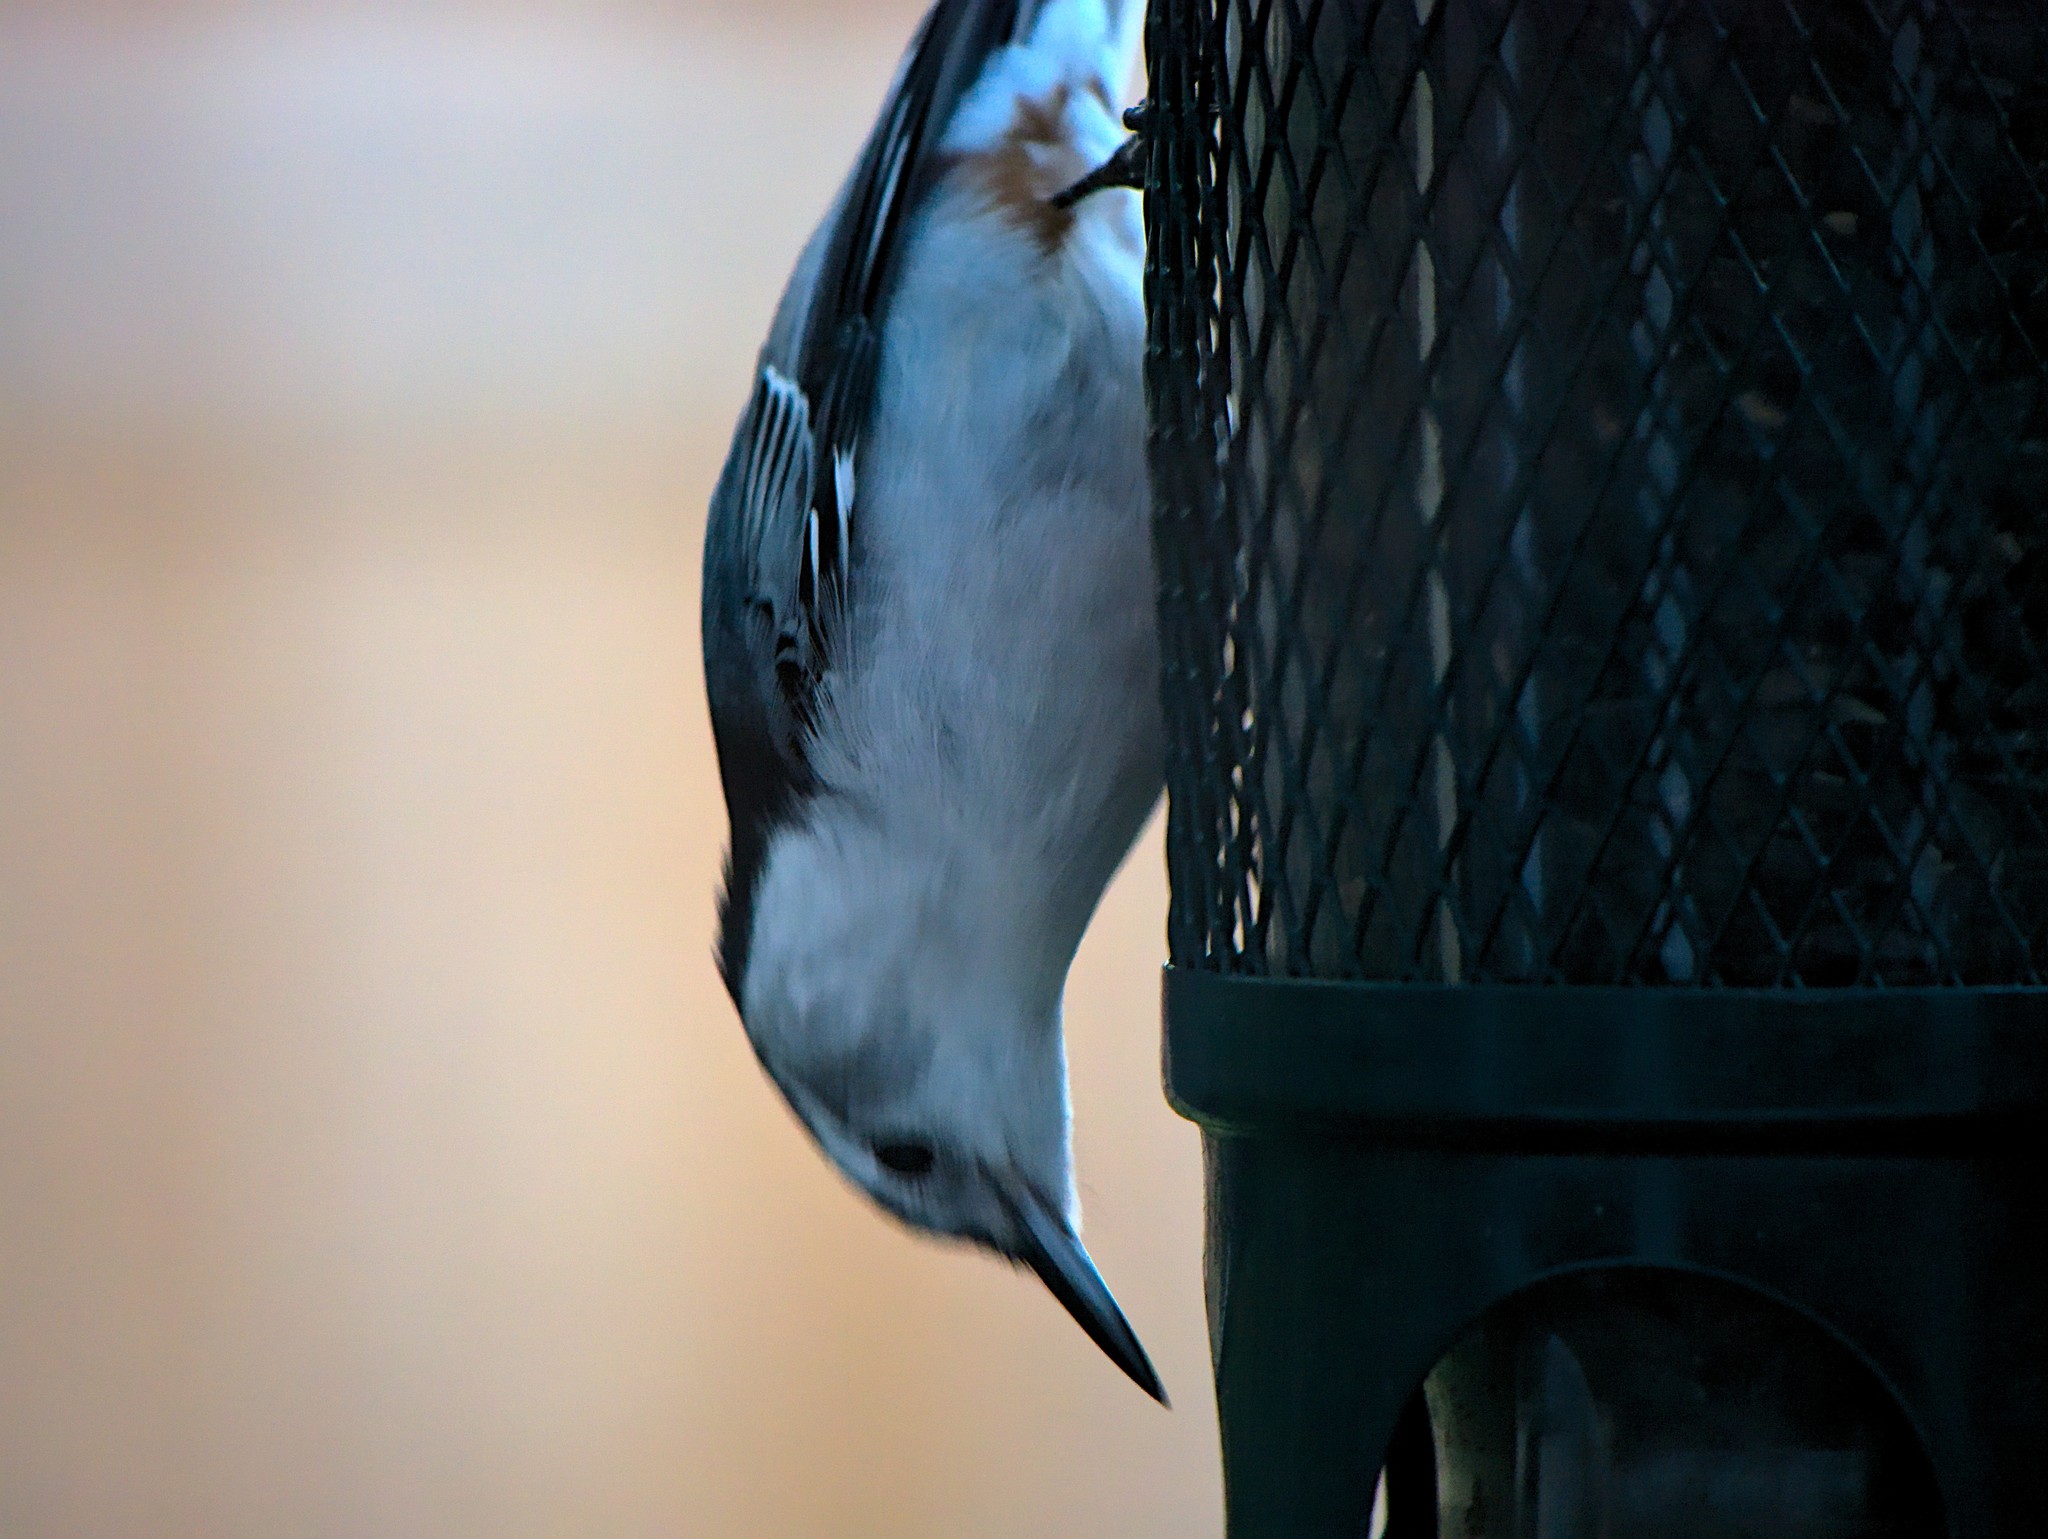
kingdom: Animalia
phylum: Chordata
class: Aves
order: Passeriformes
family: Sittidae
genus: Sitta
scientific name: Sitta carolinensis
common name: White-breasted nuthatch
